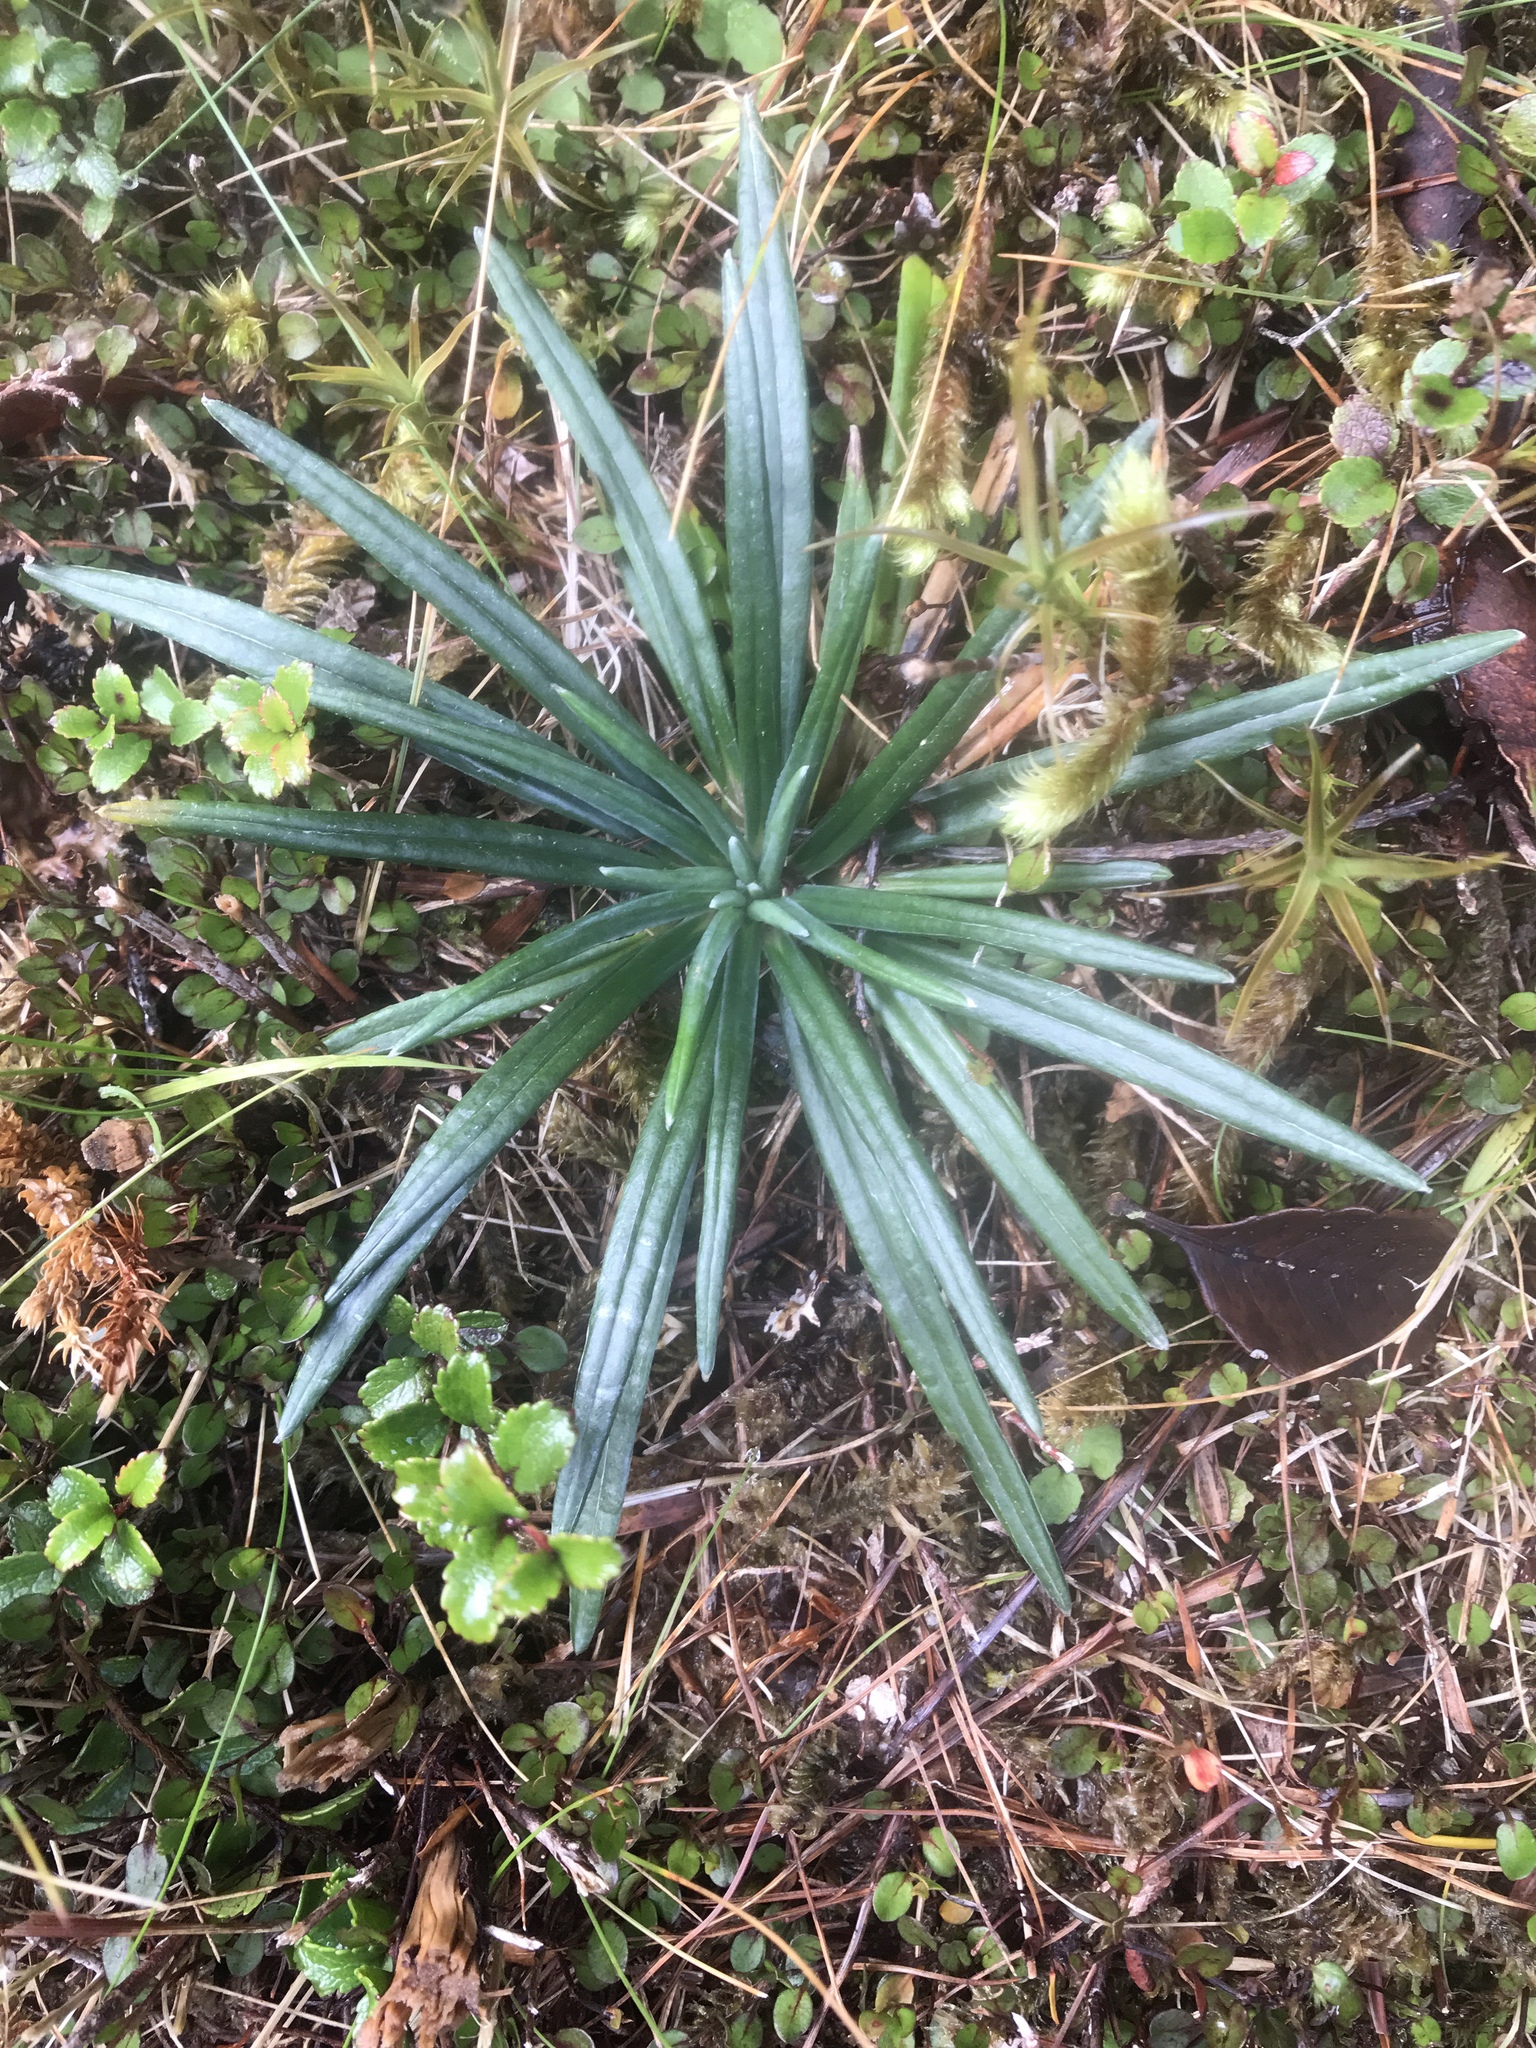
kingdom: Plantae
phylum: Tracheophyta
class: Magnoliopsida
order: Asterales
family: Asteraceae
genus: Celmisia
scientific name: Celmisia major
